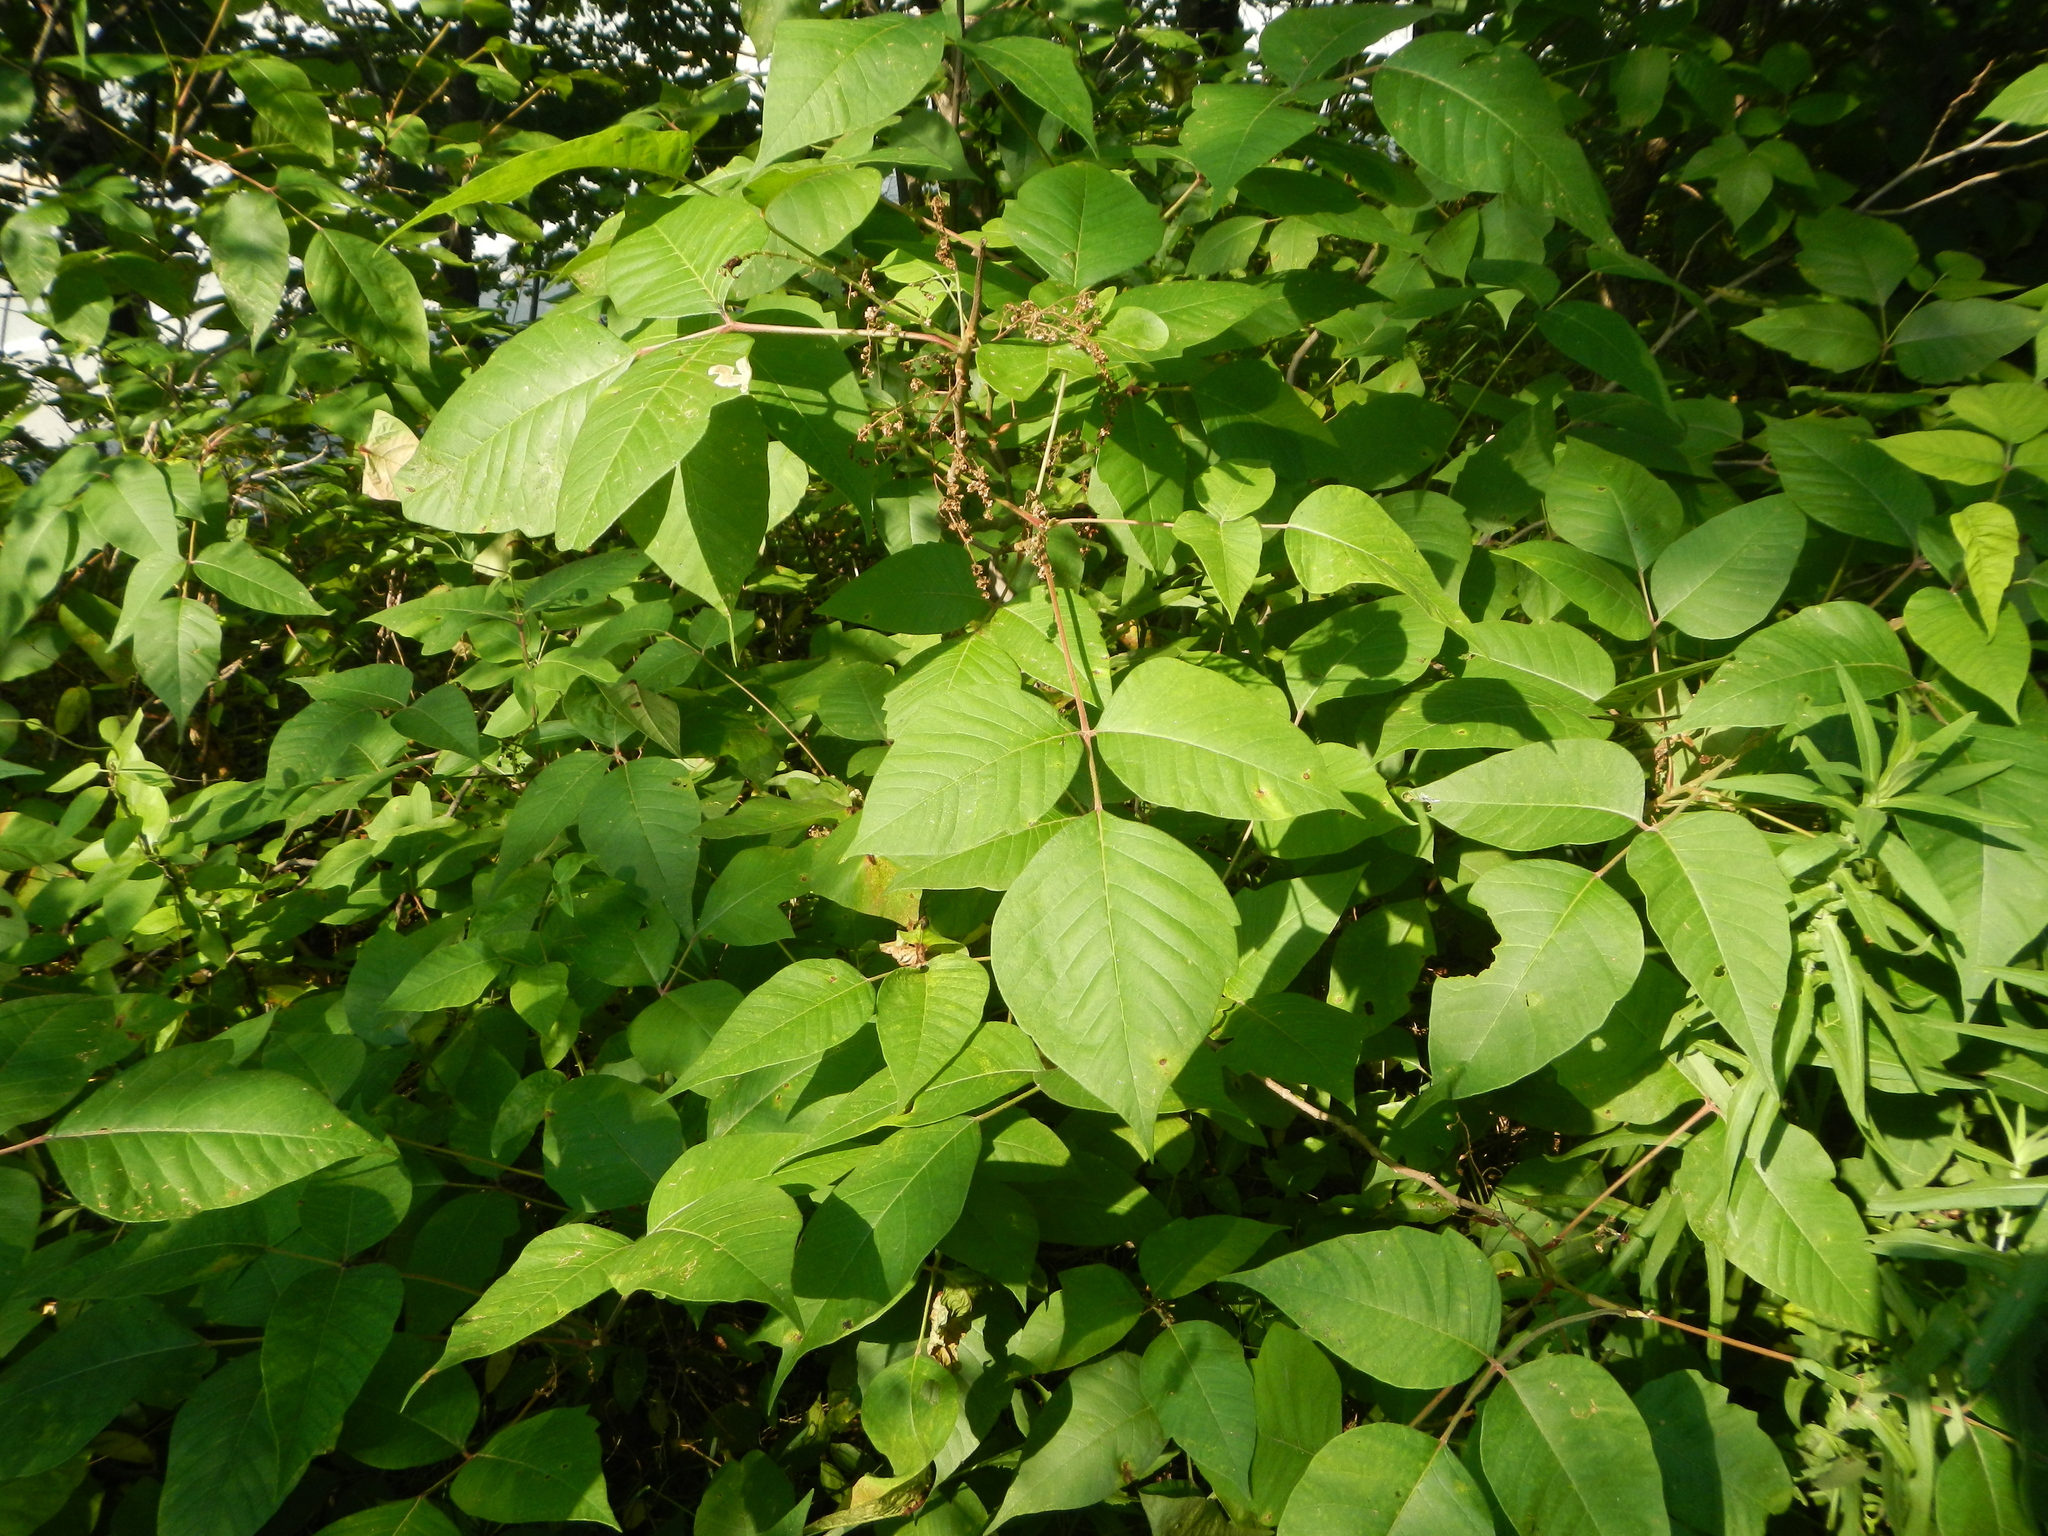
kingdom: Plantae
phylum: Tracheophyta
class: Magnoliopsida
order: Sapindales
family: Anacardiaceae
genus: Toxicodendron
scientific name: Toxicodendron radicans
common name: Poison ivy
